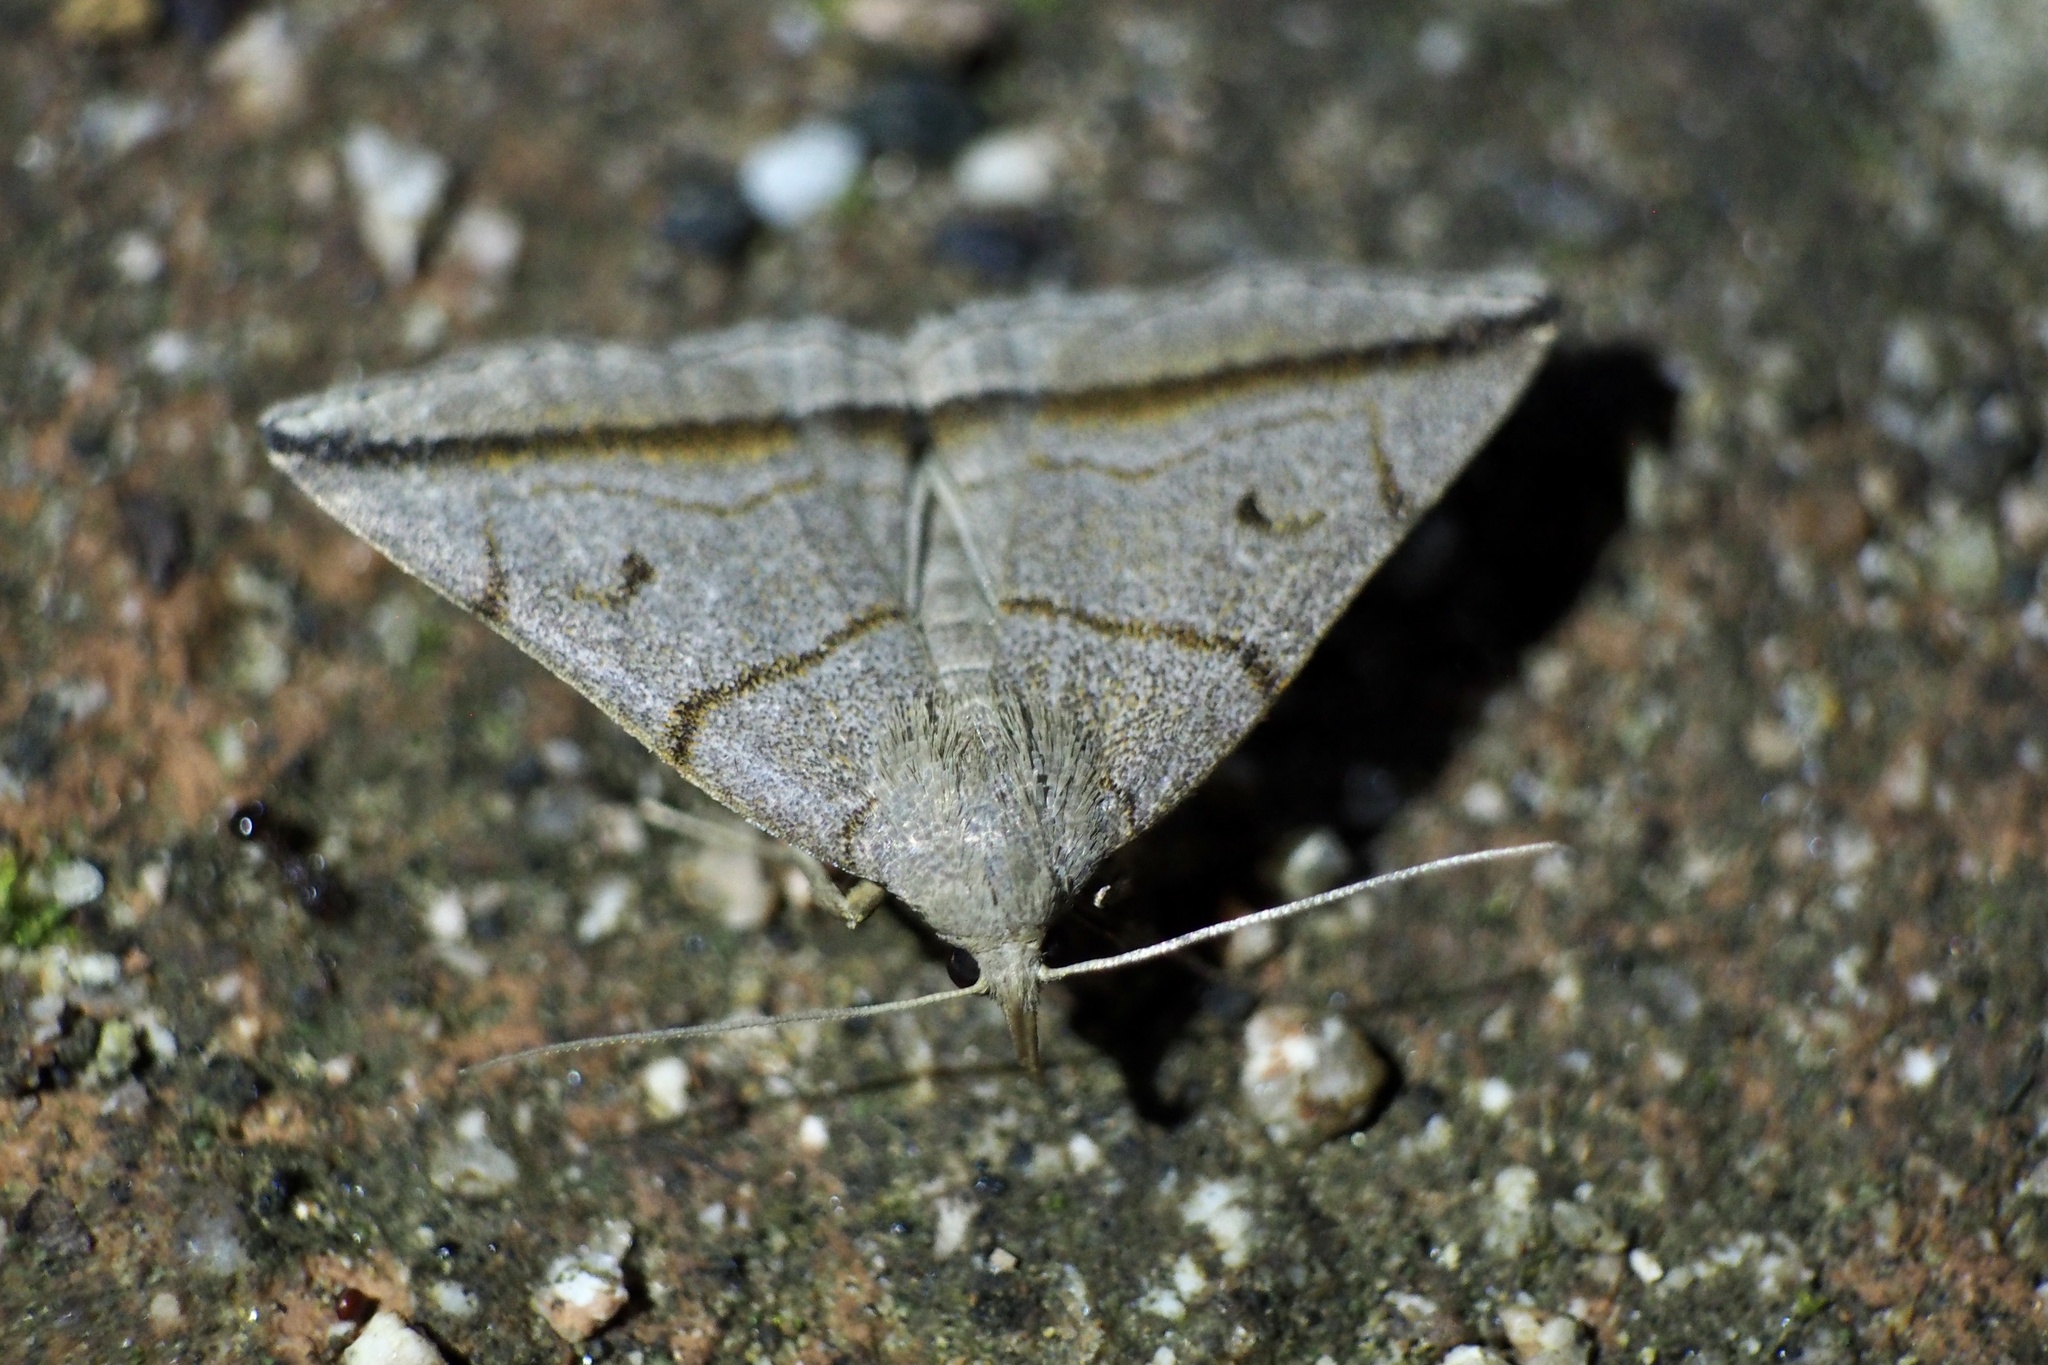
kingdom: Animalia
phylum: Arthropoda
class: Insecta
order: Lepidoptera
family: Erebidae
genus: Zanclognatha
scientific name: Zanclognatha griselda
